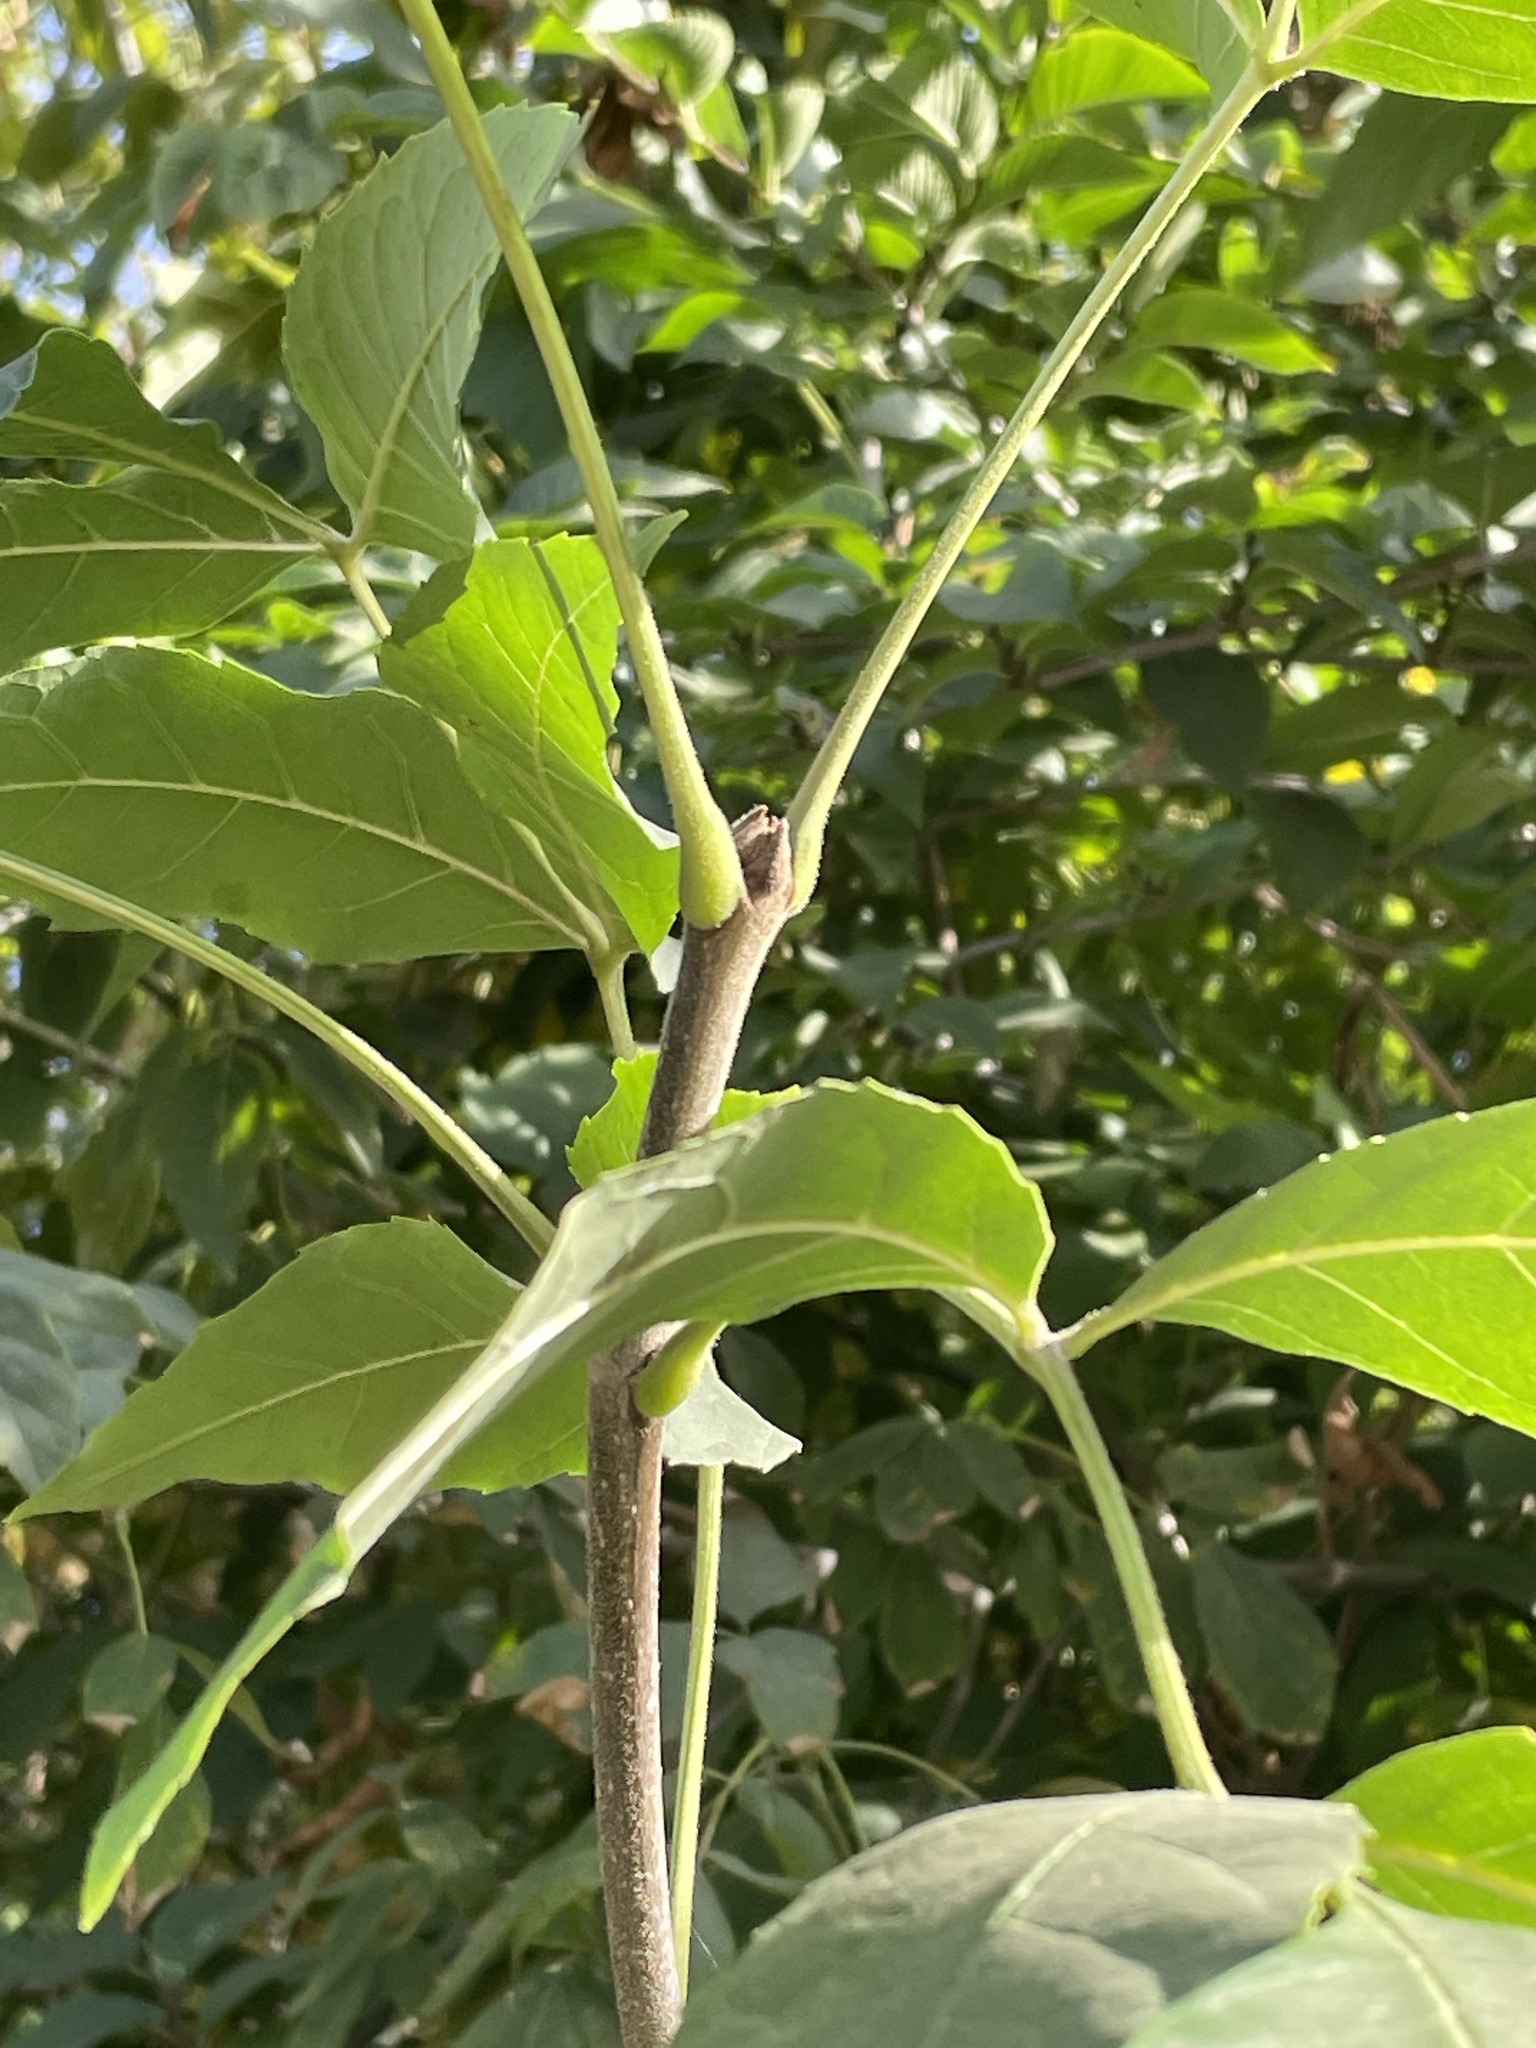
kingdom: Plantae
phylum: Tracheophyta
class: Magnoliopsida
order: Asterales
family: Asteraceae
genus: Helianthus
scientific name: Helianthus tuberosus
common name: Jerusalem artichoke
